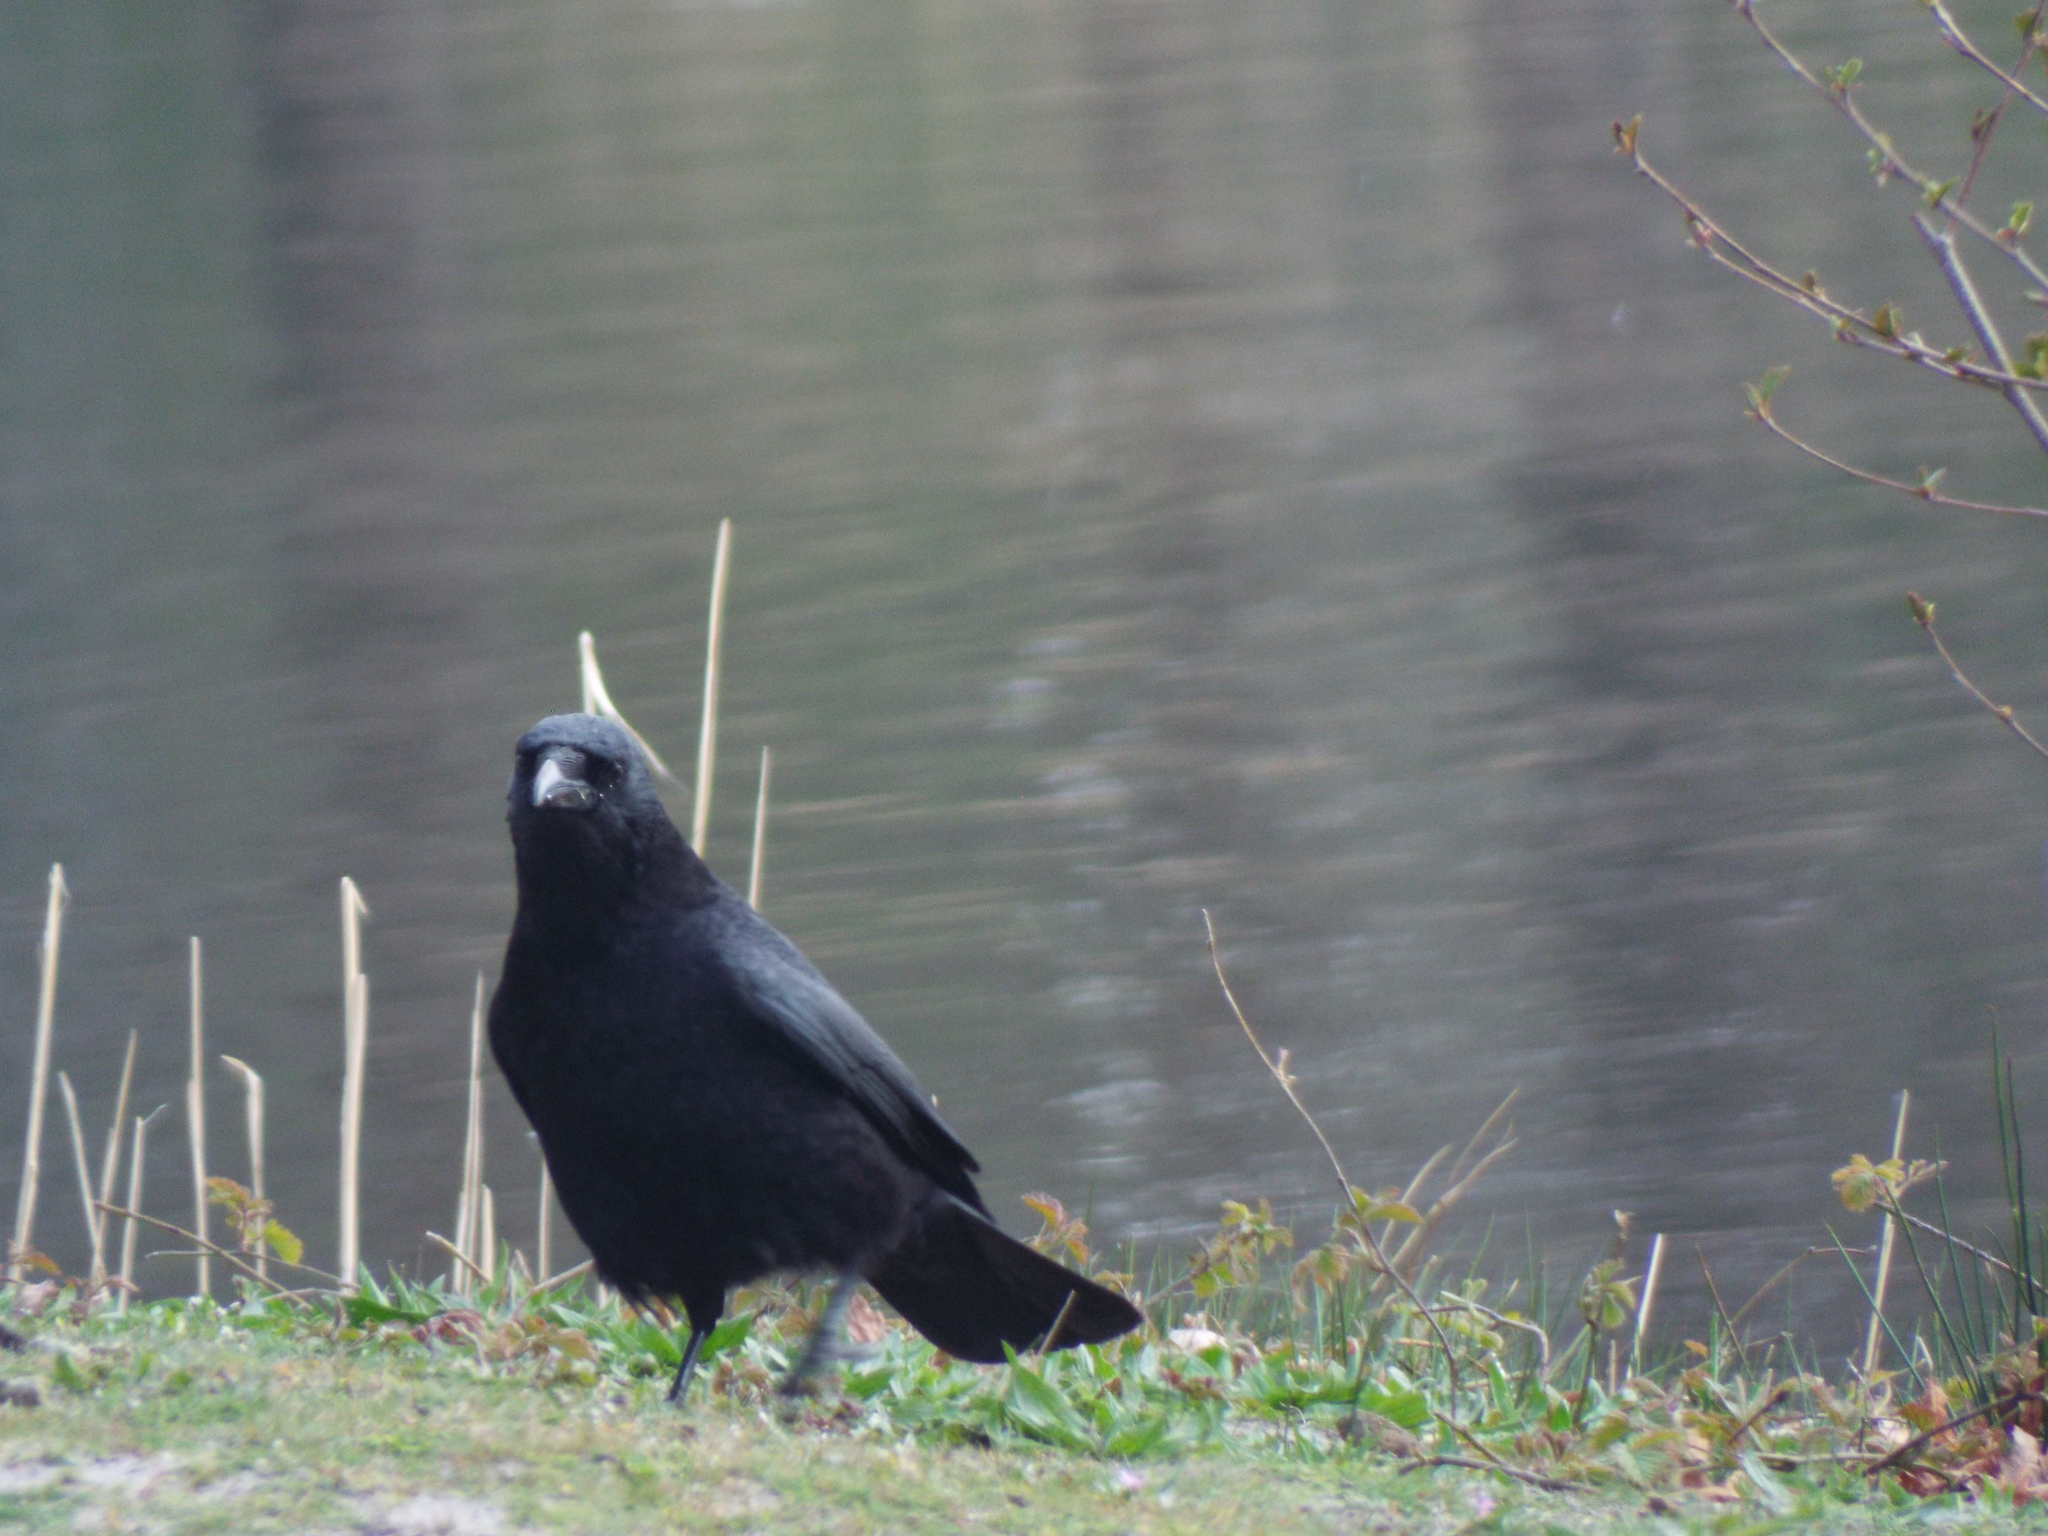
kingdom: Animalia
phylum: Chordata
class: Aves
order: Passeriformes
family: Corvidae
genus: Corvus
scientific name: Corvus corone
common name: Carrion crow
